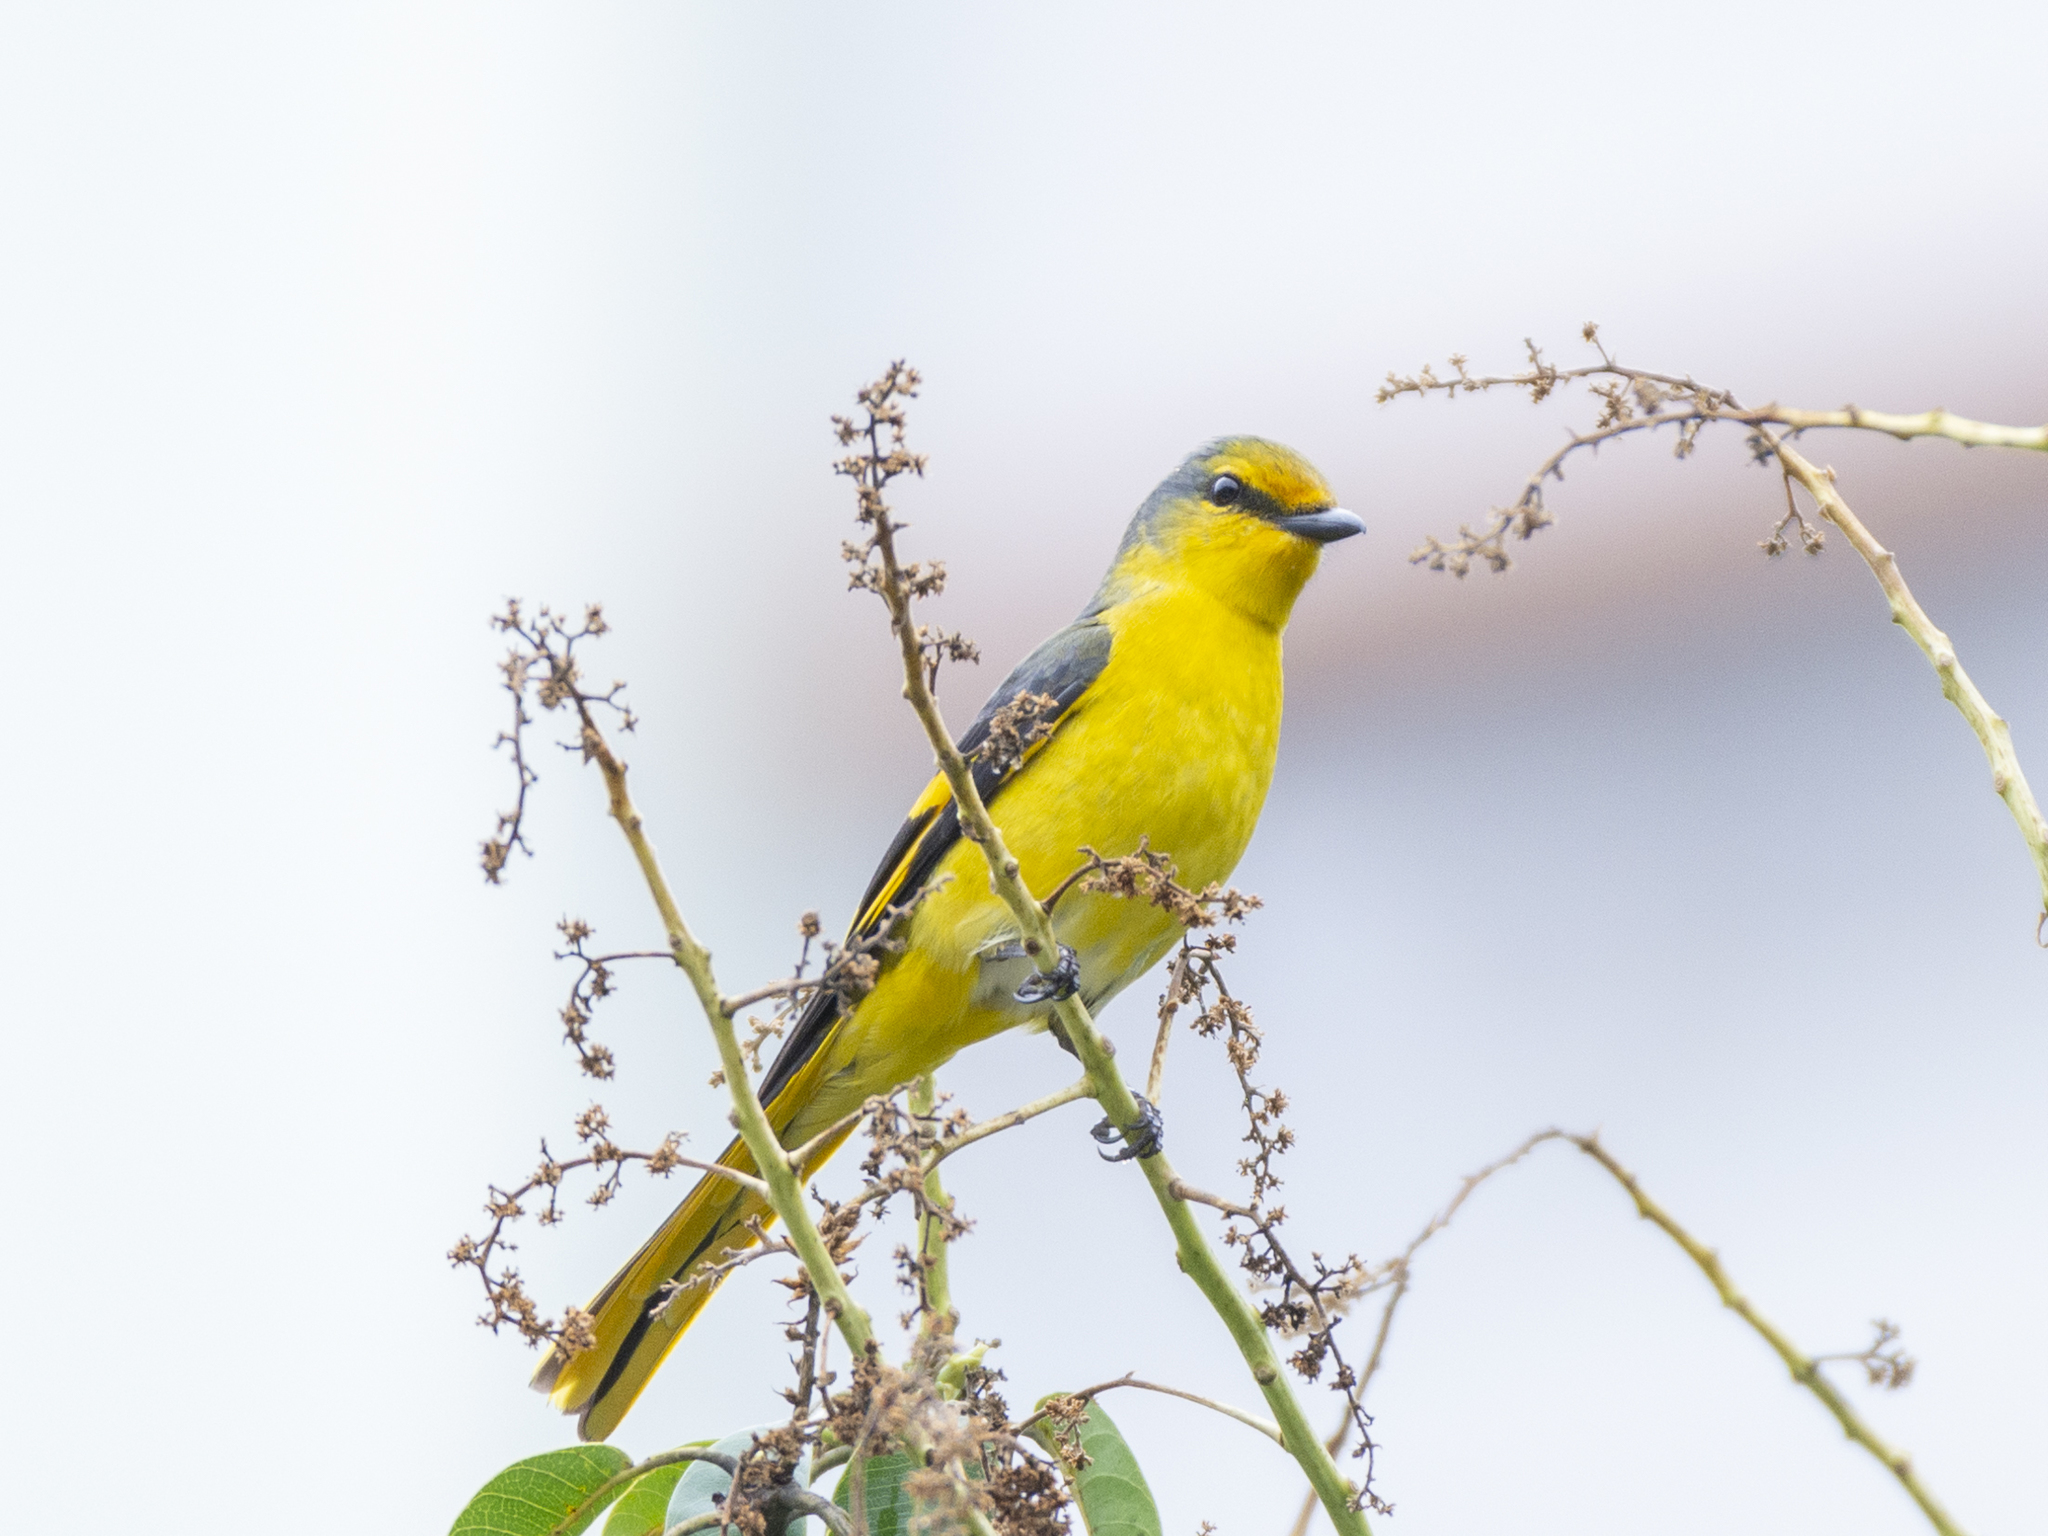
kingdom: Animalia
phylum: Chordata
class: Aves
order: Passeriformes
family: Campephagidae
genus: Pericrocotus
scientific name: Pericrocotus speciosus
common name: Scarlet minivet
